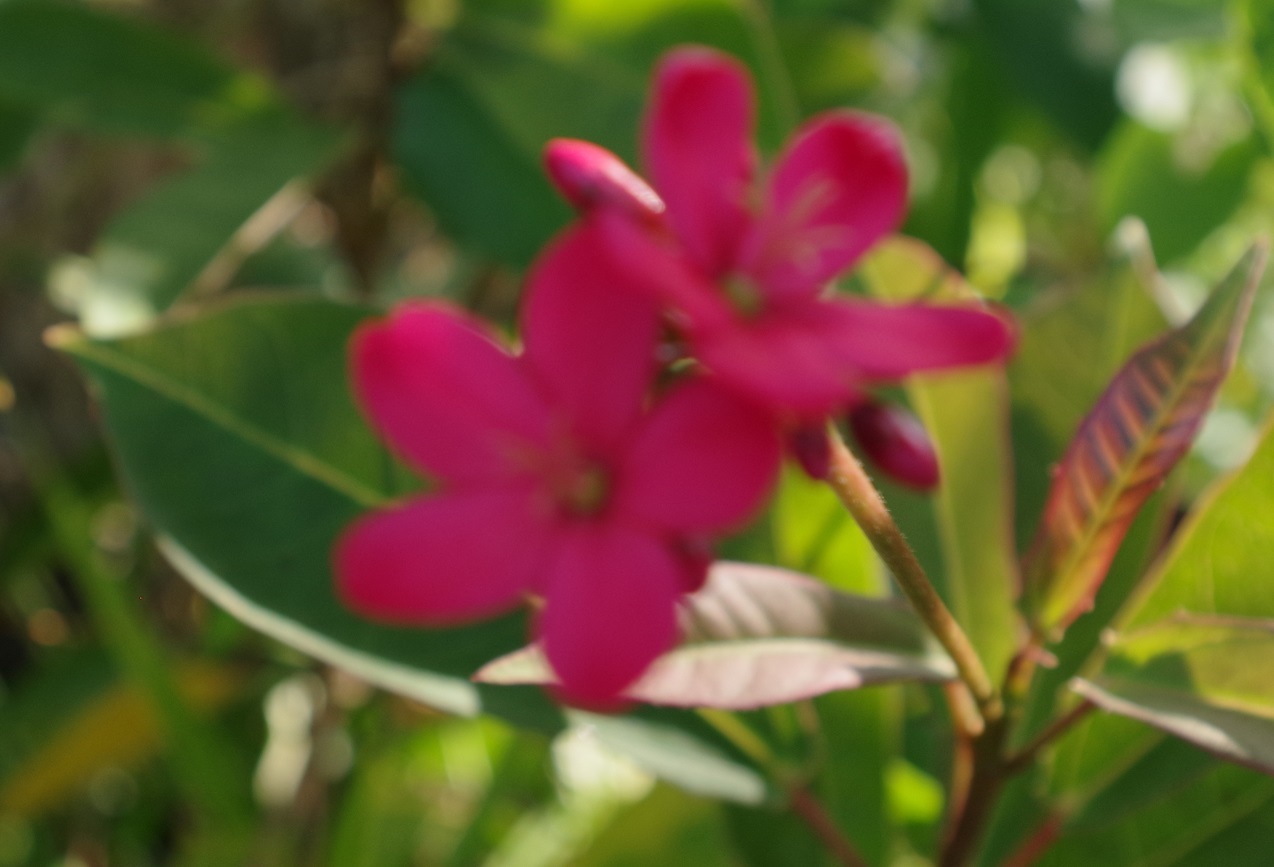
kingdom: Plantae
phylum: Tracheophyta
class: Magnoliopsida
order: Malpighiales
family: Euphorbiaceae
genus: Jatropha
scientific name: Jatropha integerrima
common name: Peregrina
